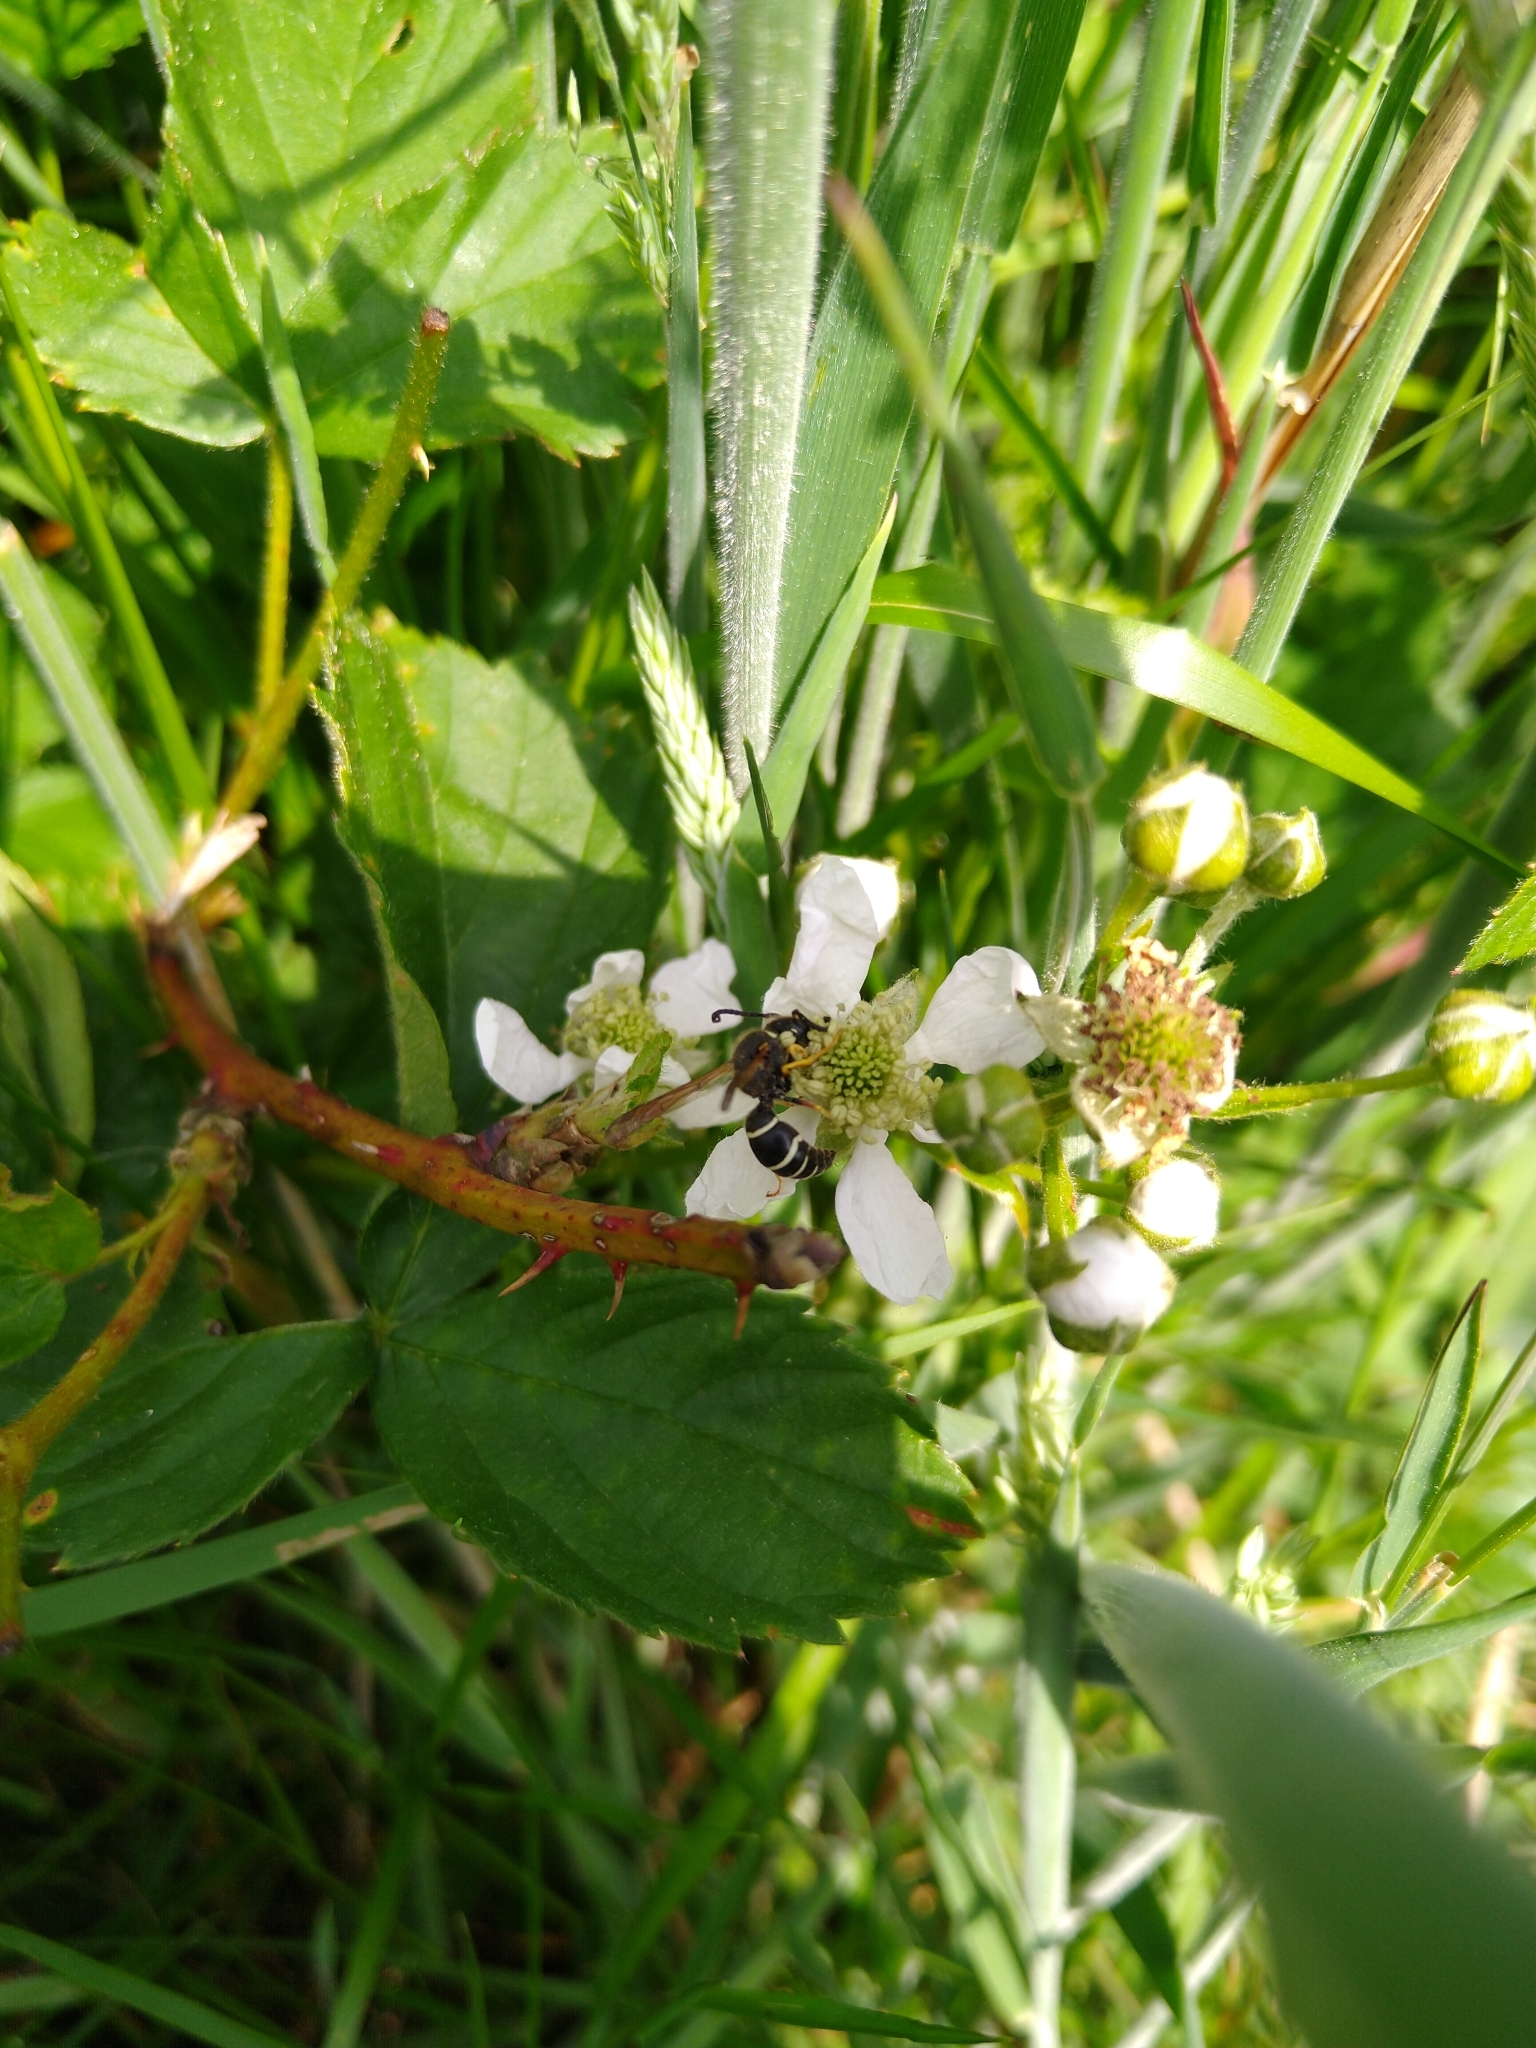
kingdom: Animalia
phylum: Arthropoda
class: Insecta
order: Hymenoptera
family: Vespidae
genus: Odynerus
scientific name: Odynerus simillimus
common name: Fen mason-wasp
